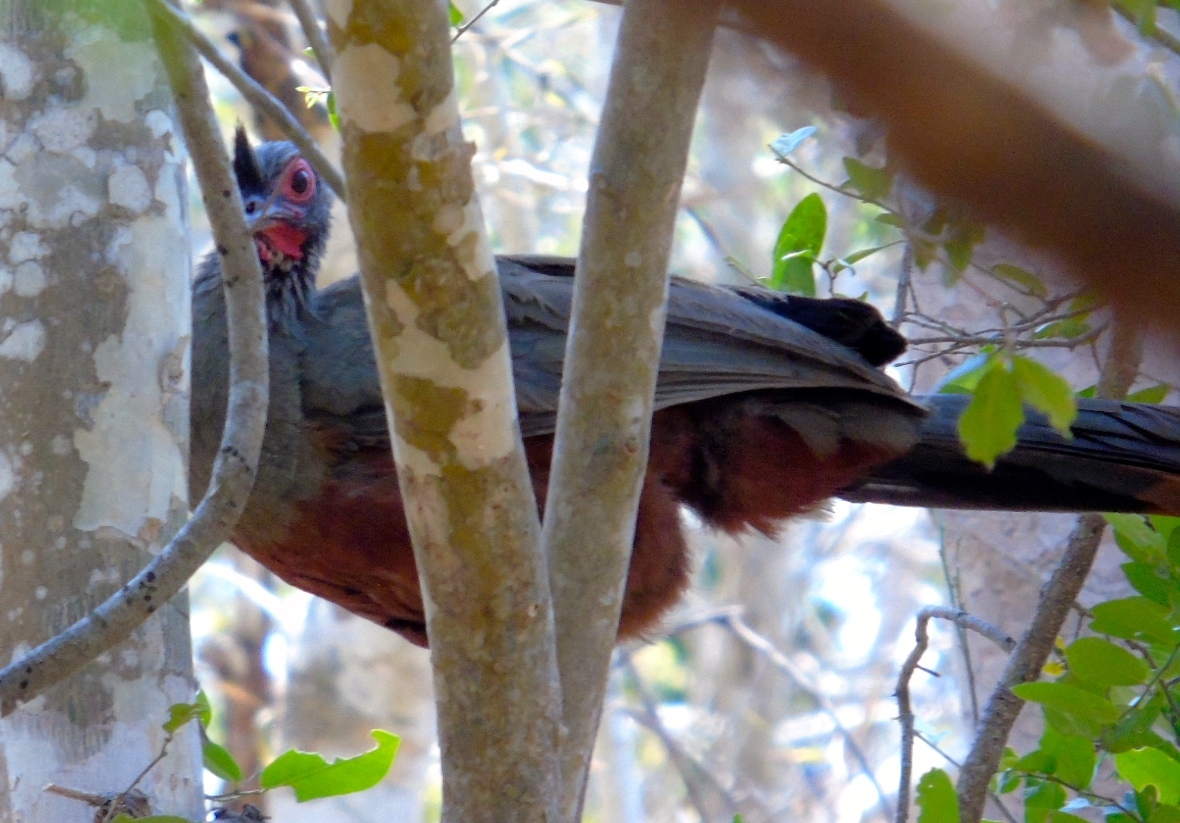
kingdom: Animalia
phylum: Chordata
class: Aves
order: Galliformes
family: Cracidae
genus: Ortalis
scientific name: Ortalis wagleri
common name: Rufous-bellied chachalaca
